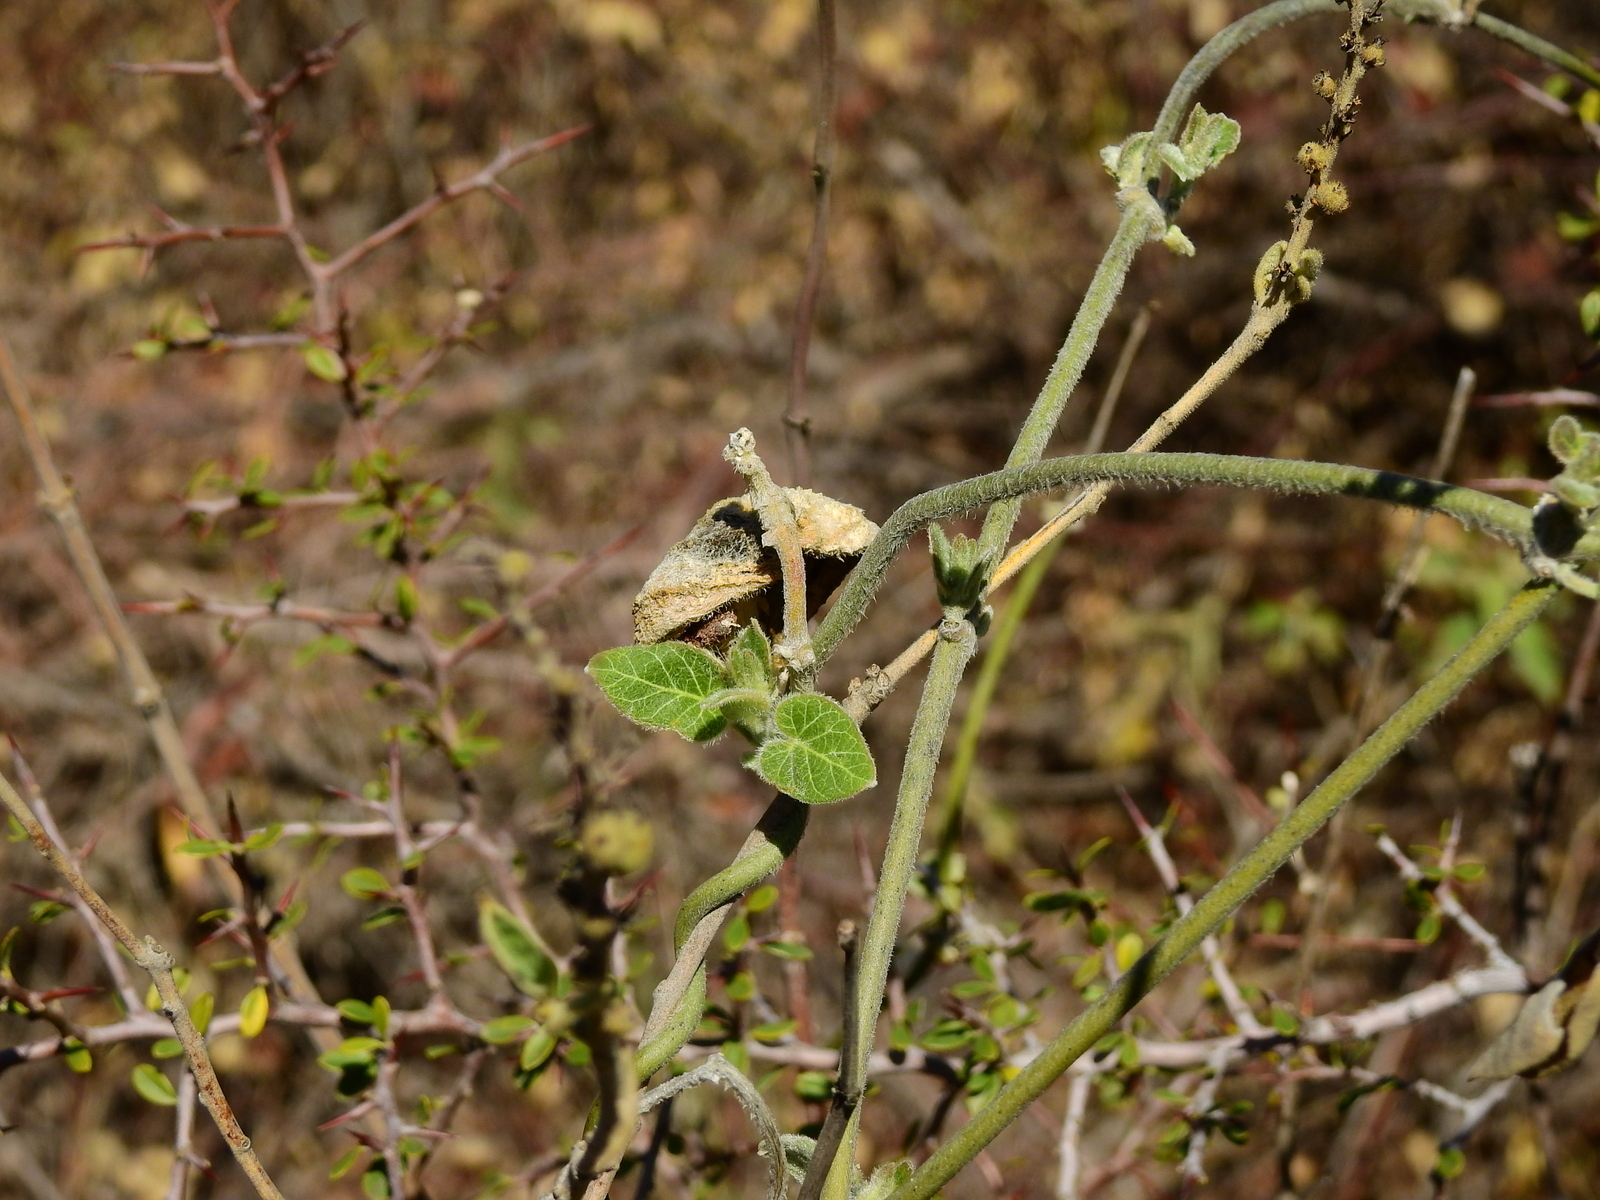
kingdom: Plantae
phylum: Tracheophyta
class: Magnoliopsida
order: Gentianales
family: Apocynaceae
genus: Philibertia
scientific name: Philibertia tomentosa
